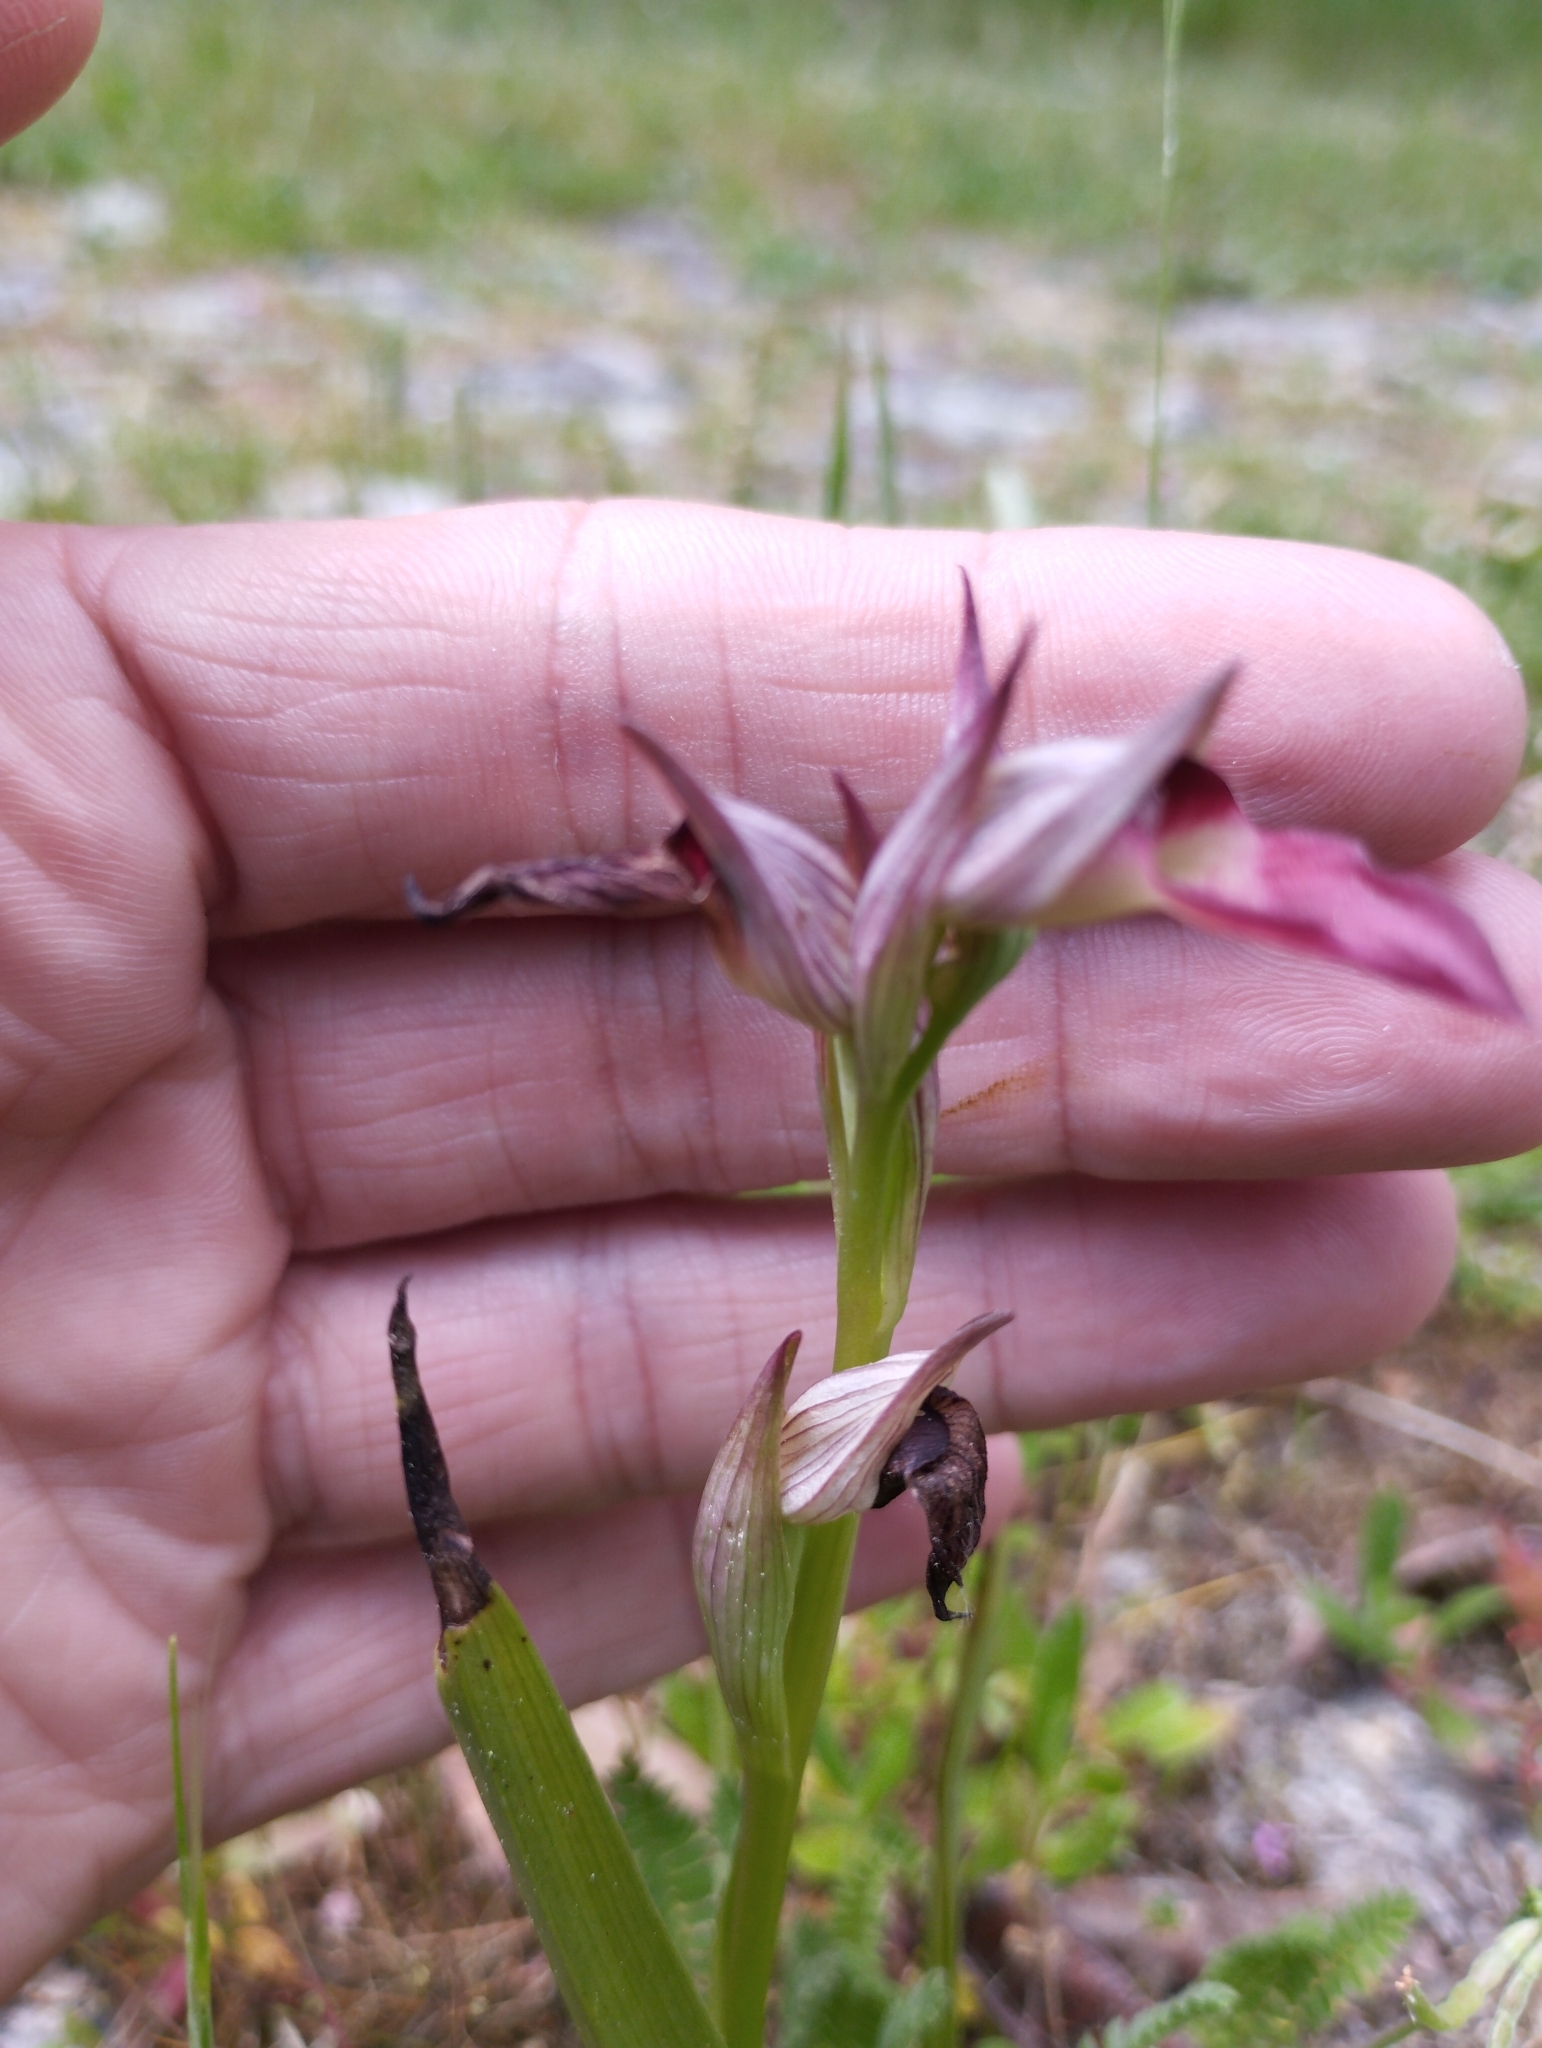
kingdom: Plantae
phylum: Tracheophyta
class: Liliopsida
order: Asparagales
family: Orchidaceae
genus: Serapias
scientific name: Serapias lingua
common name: Tongue-orchid
